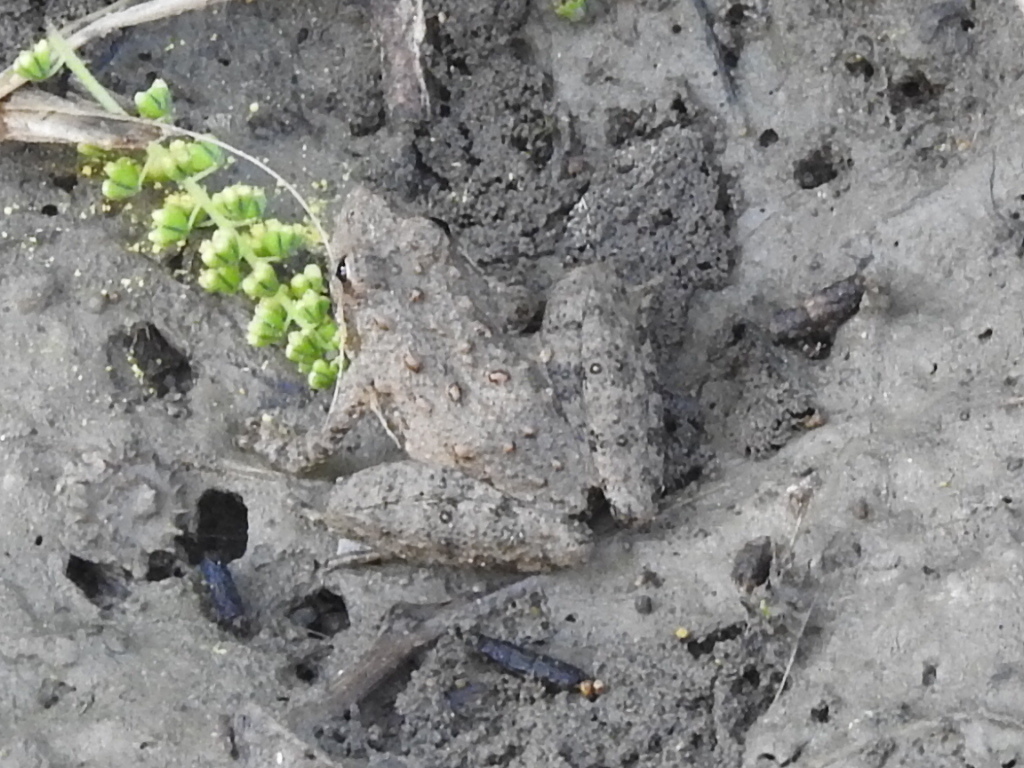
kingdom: Animalia
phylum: Chordata
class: Amphibia
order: Anura
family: Hylidae
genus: Acris
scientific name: Acris blanchardi
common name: Blanchard's cricket frog
